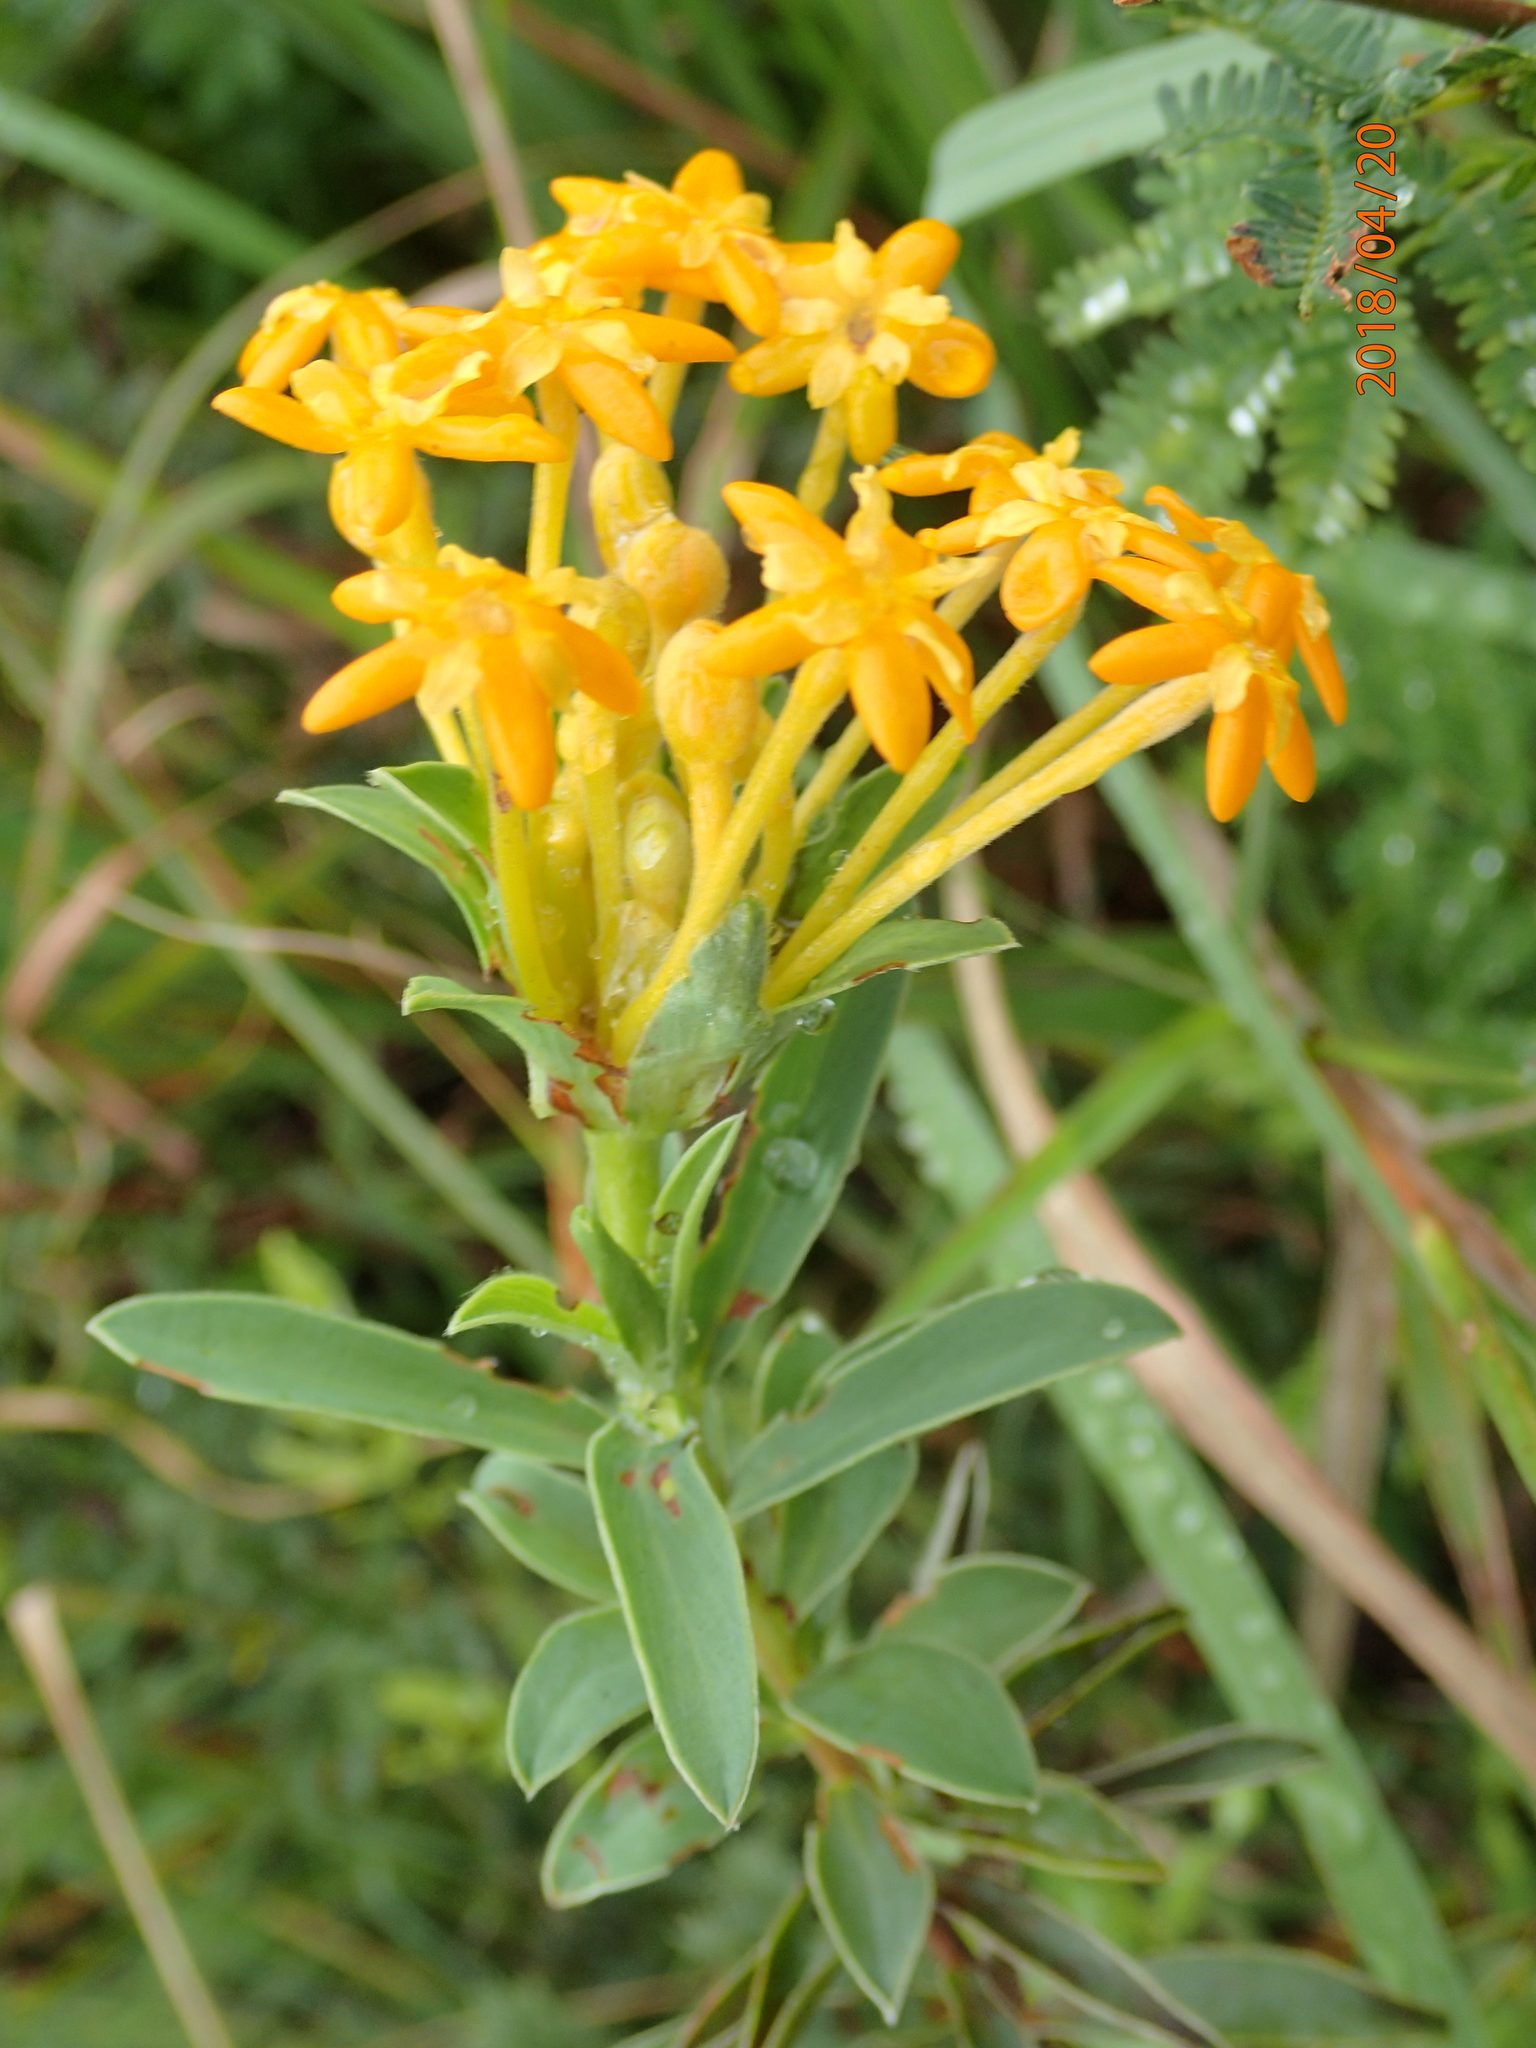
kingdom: Plantae
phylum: Tracheophyta
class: Magnoliopsida
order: Malvales
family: Thymelaeaceae
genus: Gnidia
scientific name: Gnidia capitata
